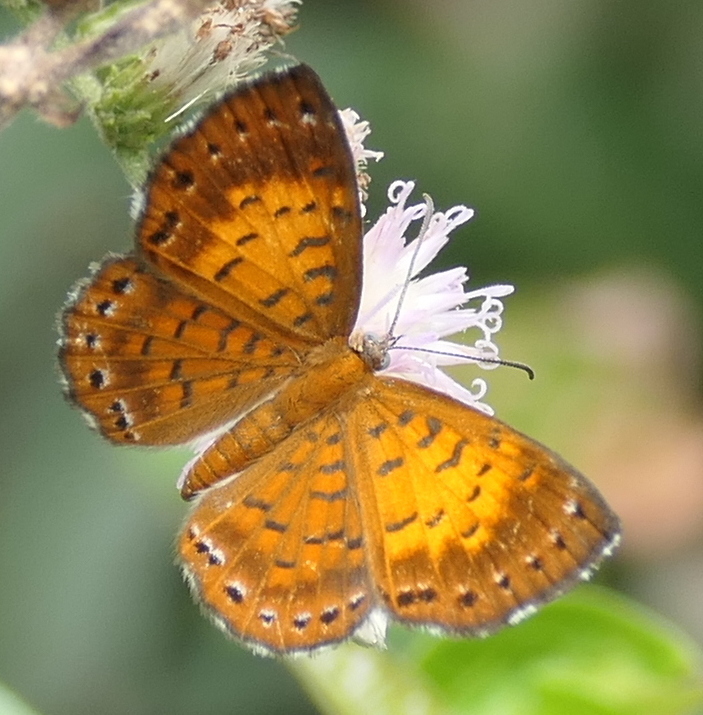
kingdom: Animalia
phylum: Arthropoda
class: Insecta
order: Lepidoptera
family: Riodinidae
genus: Polystichtis
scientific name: Polystichtis lucianus
